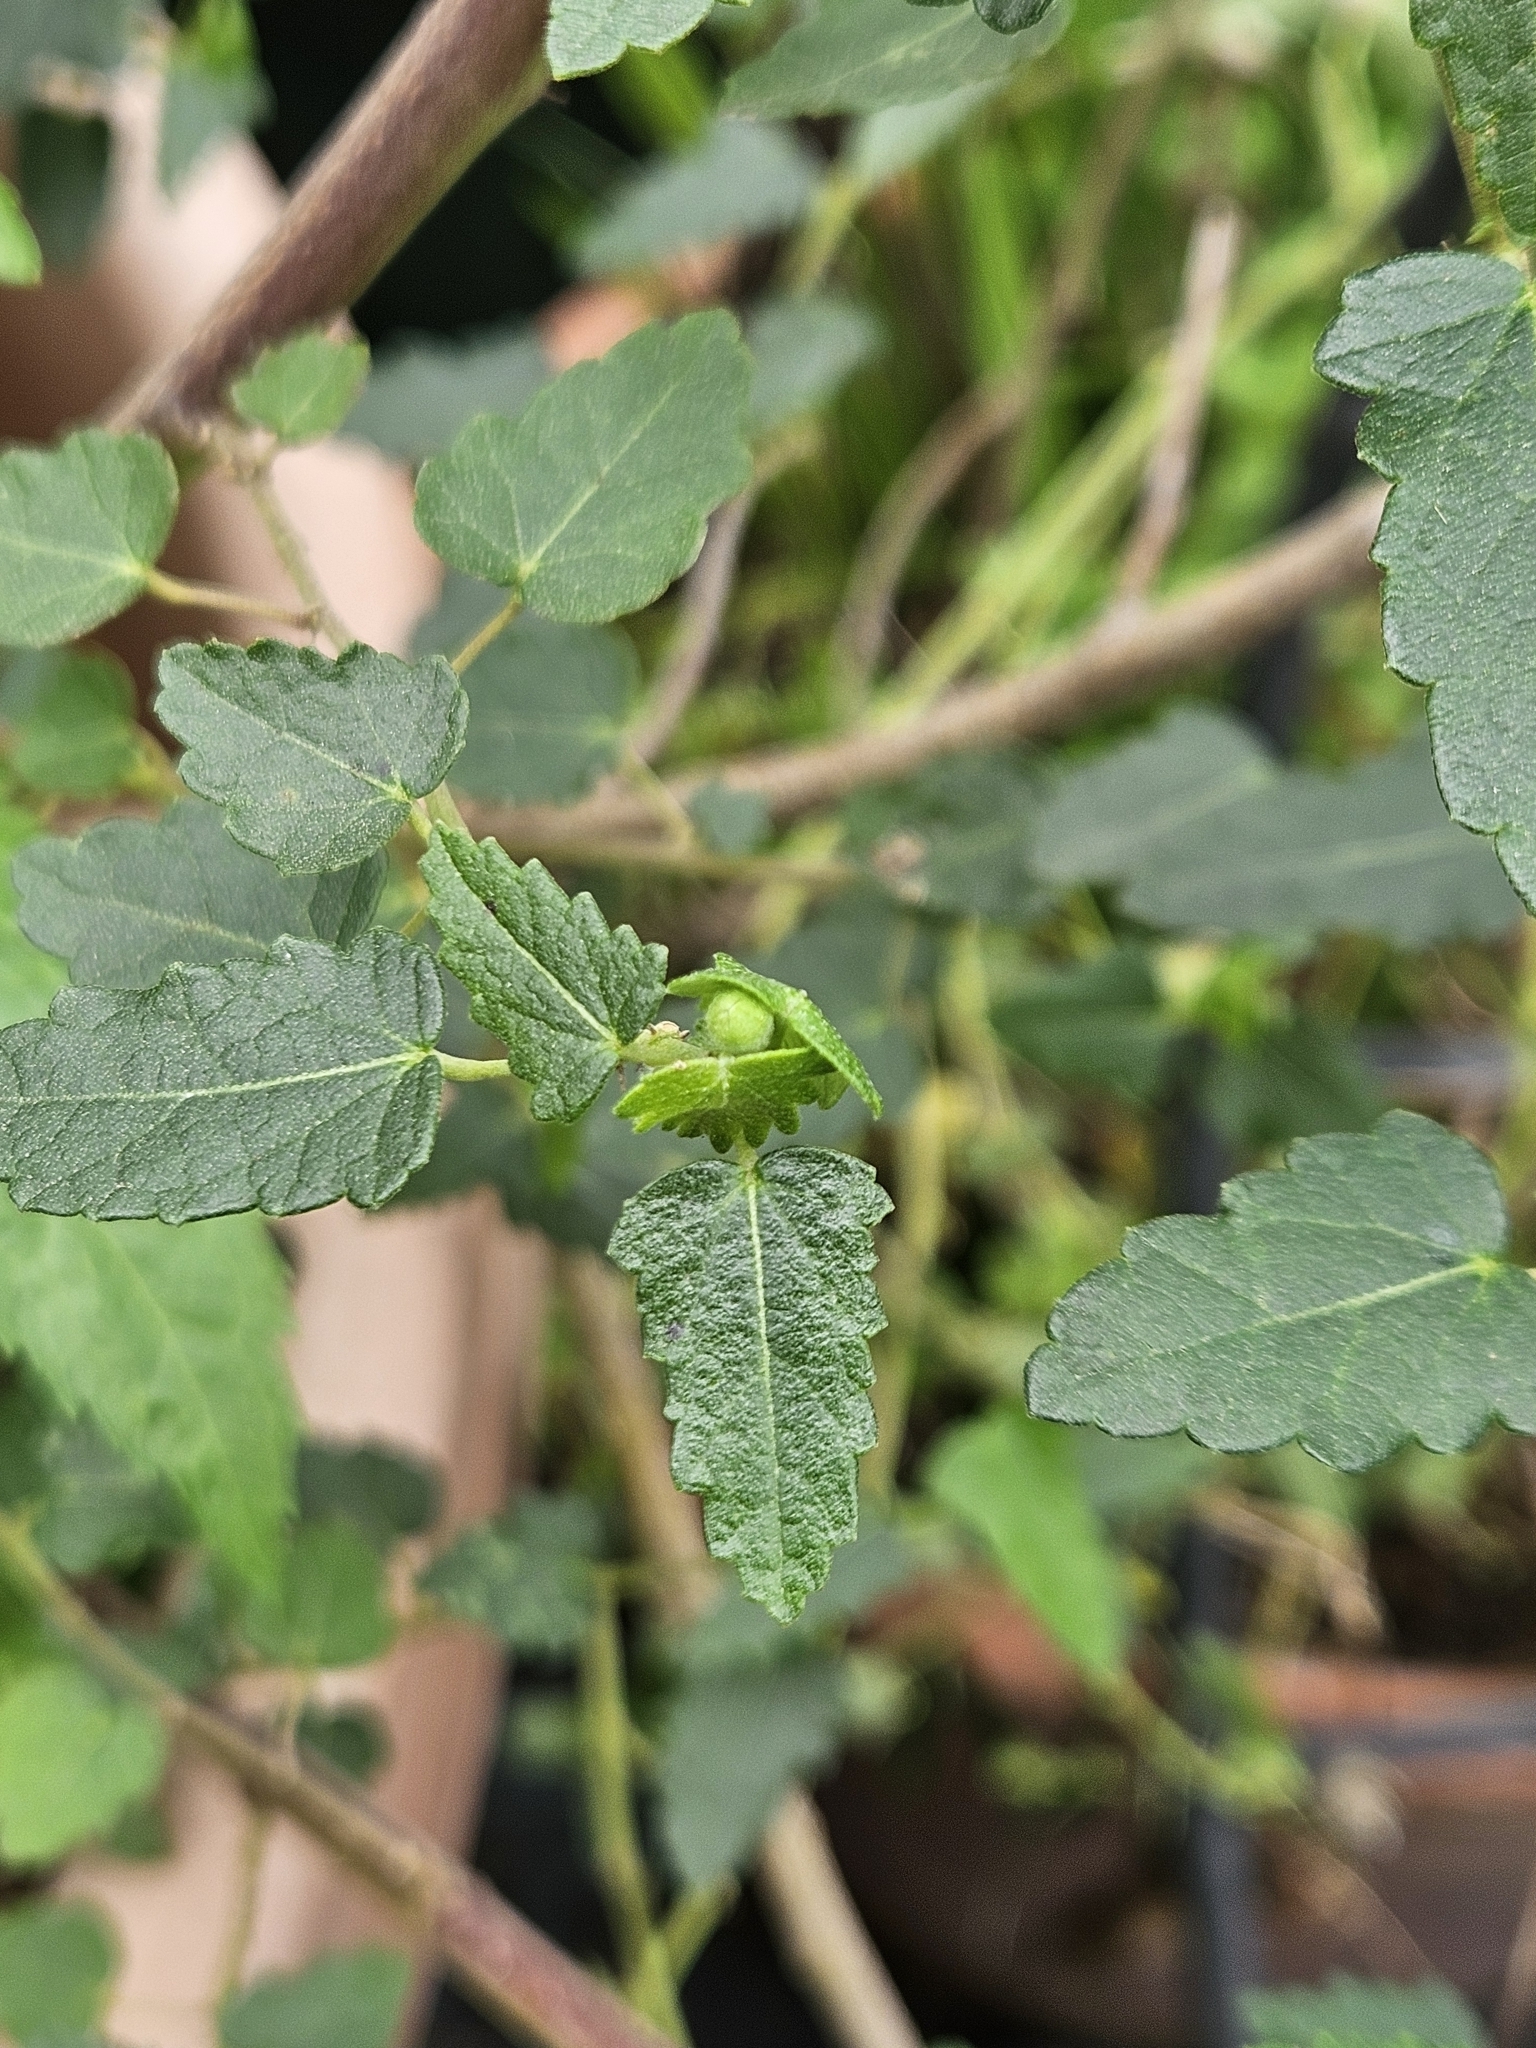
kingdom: Plantae
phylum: Tracheophyta
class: Magnoliopsida
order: Malvales
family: Malvaceae
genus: Pavonia
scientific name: Pavonia hastata
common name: Spearleaf swampmallow
